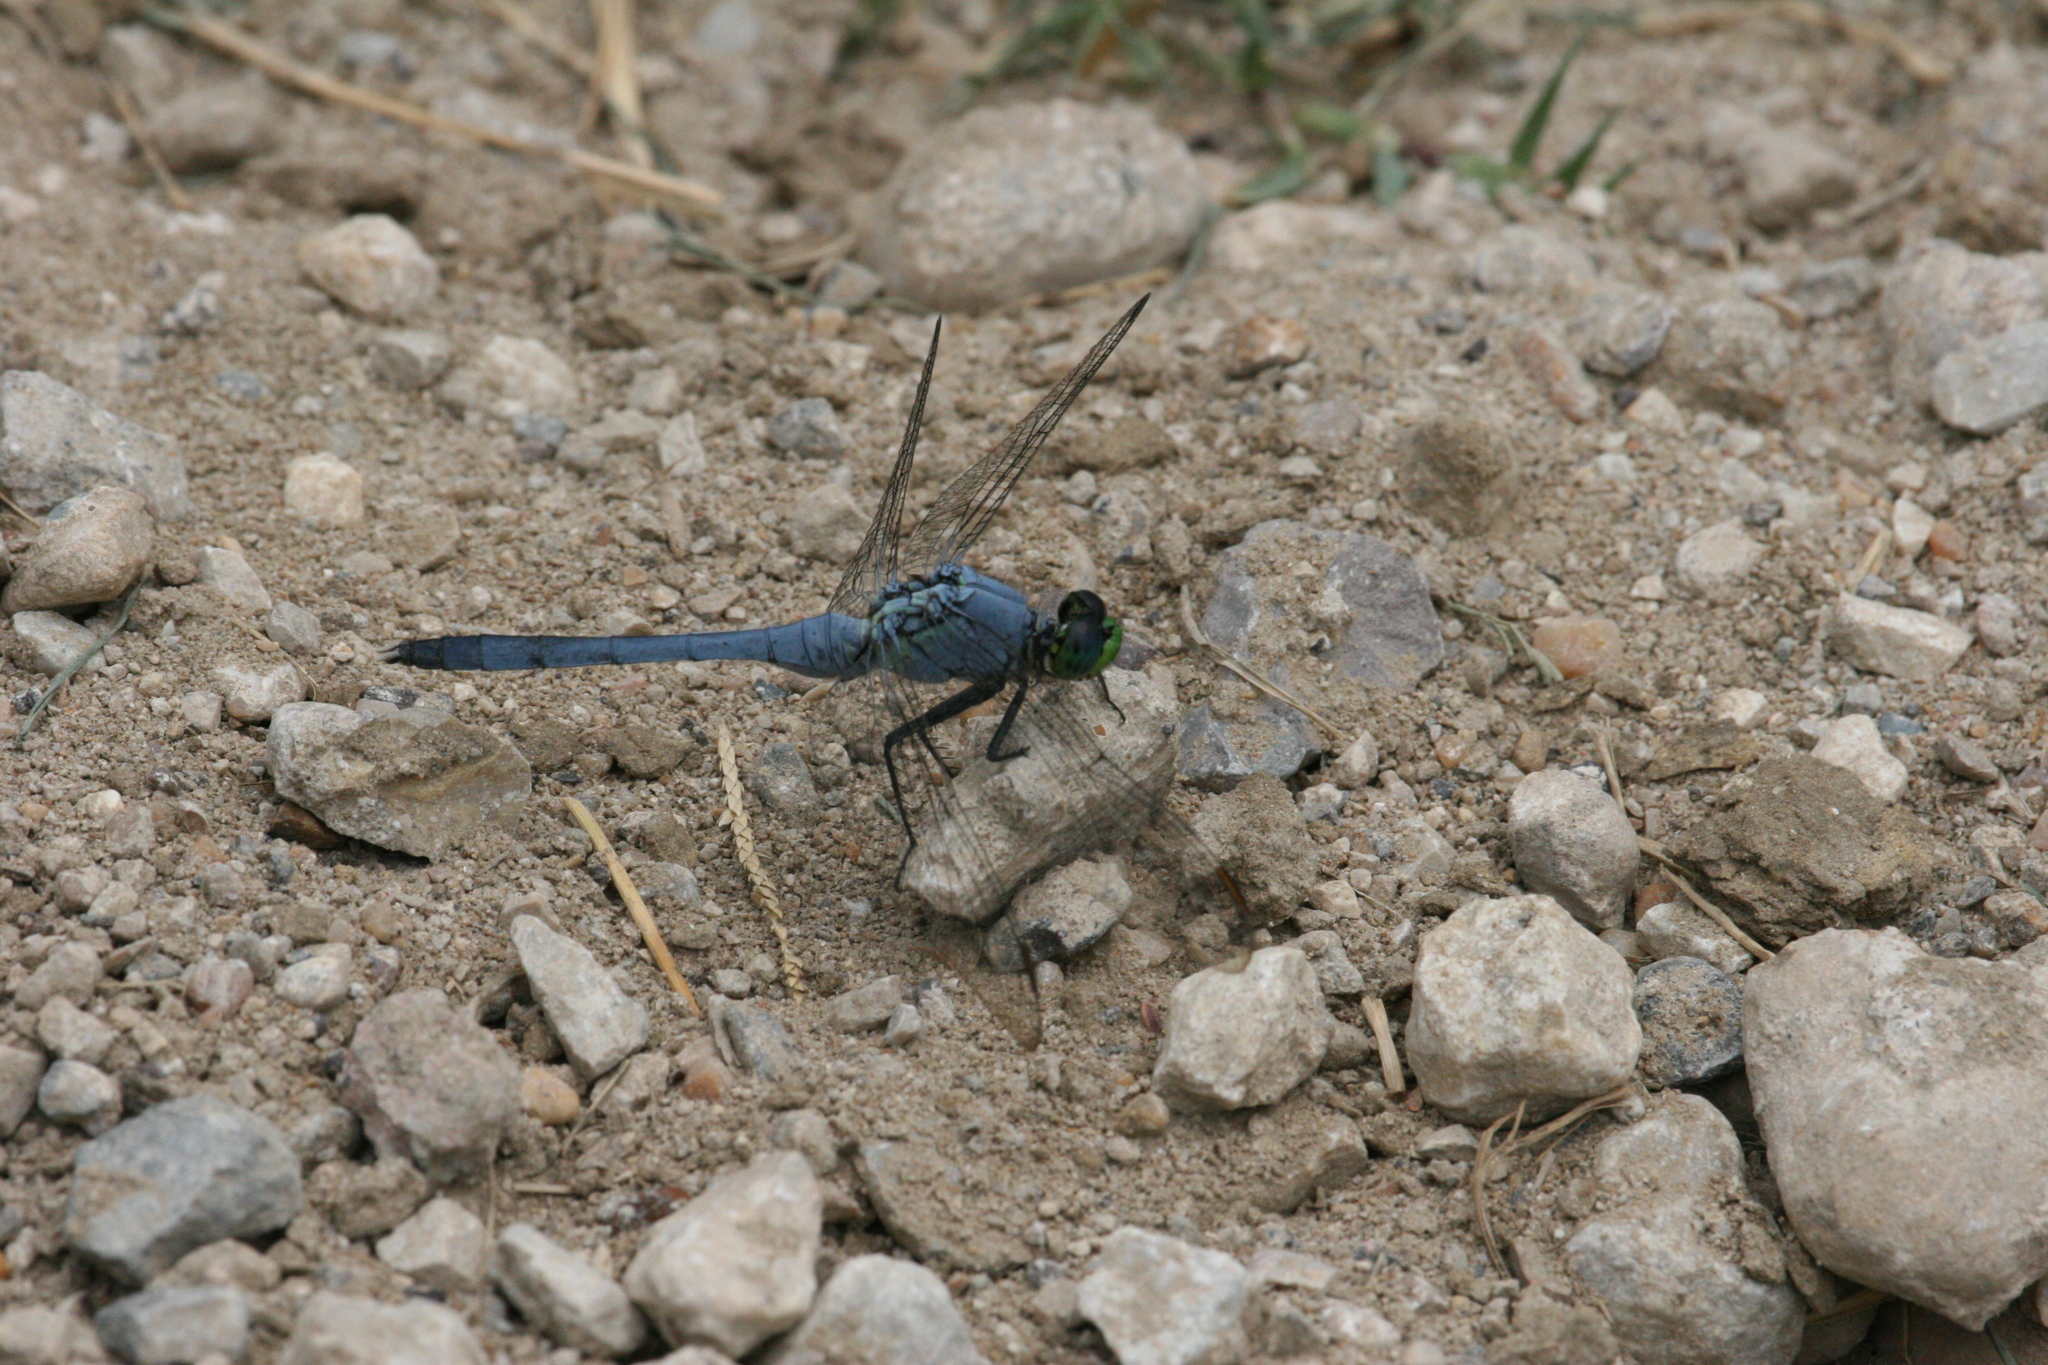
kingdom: Animalia
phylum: Arthropoda
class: Insecta
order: Odonata
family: Libellulidae
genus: Erythemis
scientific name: Erythemis simplicicollis
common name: Eastern pondhawk
